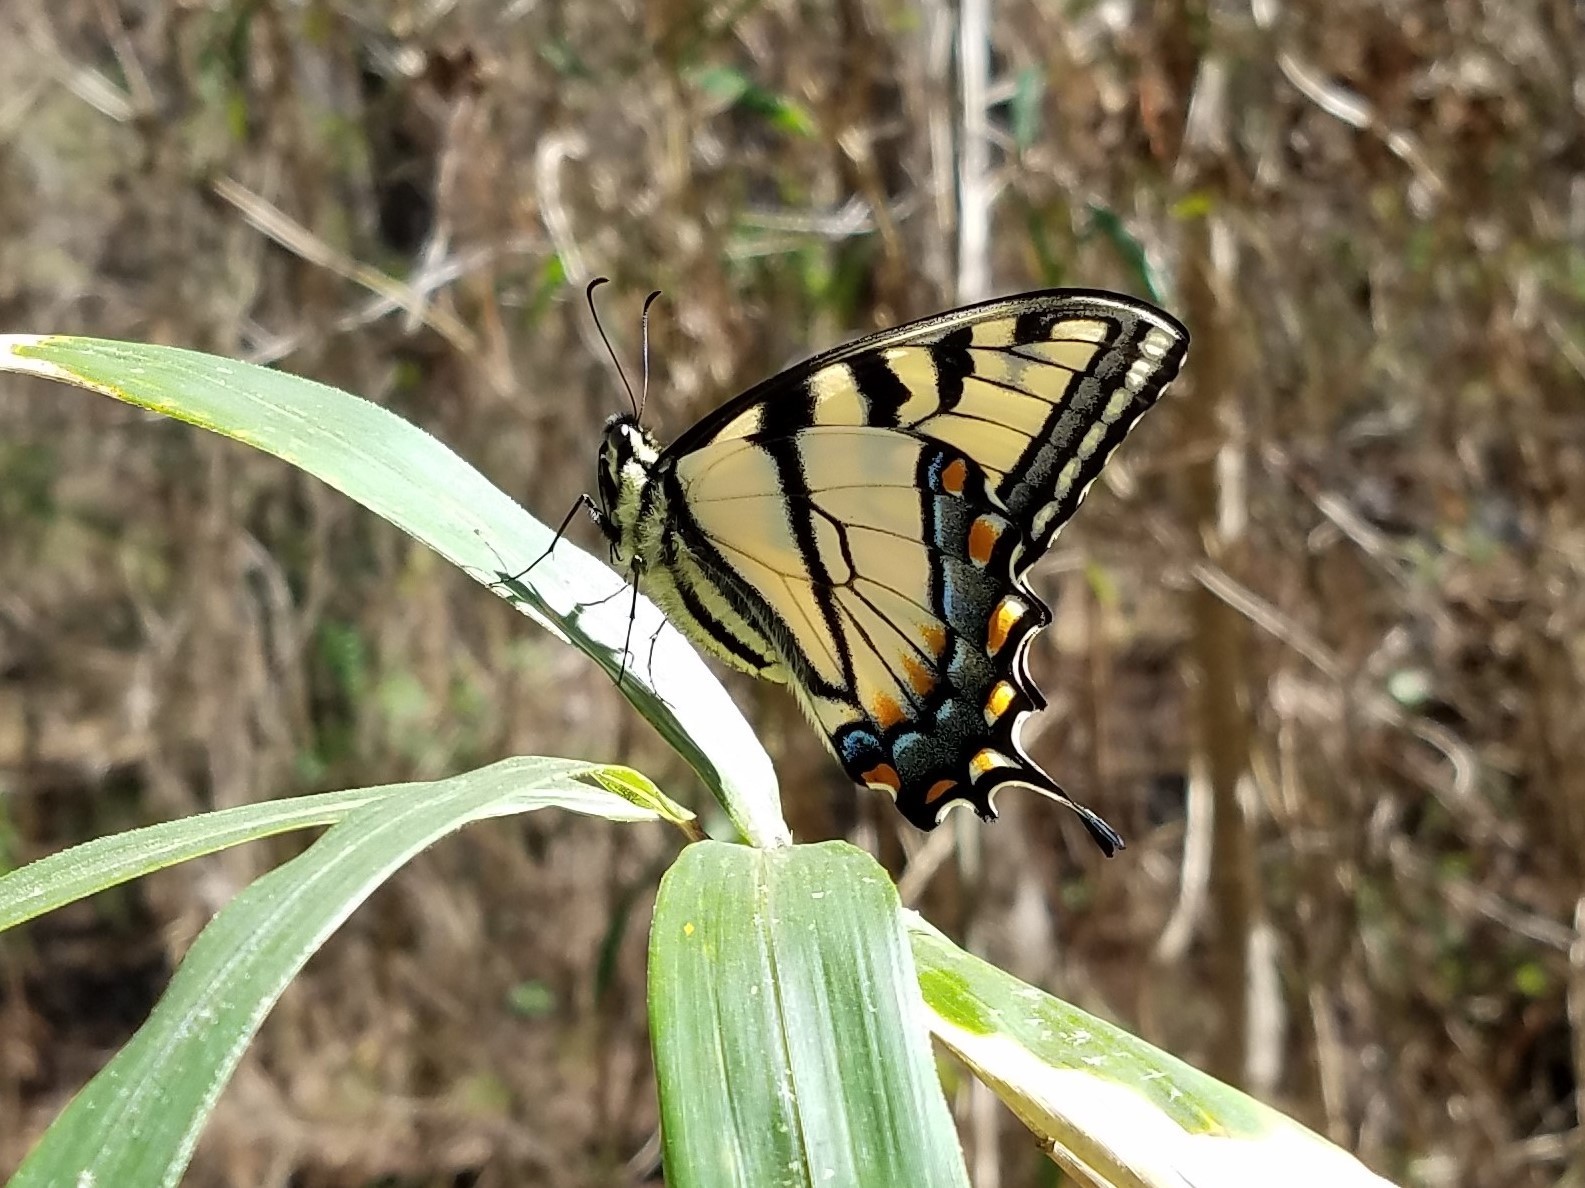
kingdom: Animalia
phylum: Arthropoda
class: Insecta
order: Lepidoptera
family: Papilionidae
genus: Papilio
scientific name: Papilio glaucus
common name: Tiger swallowtail
